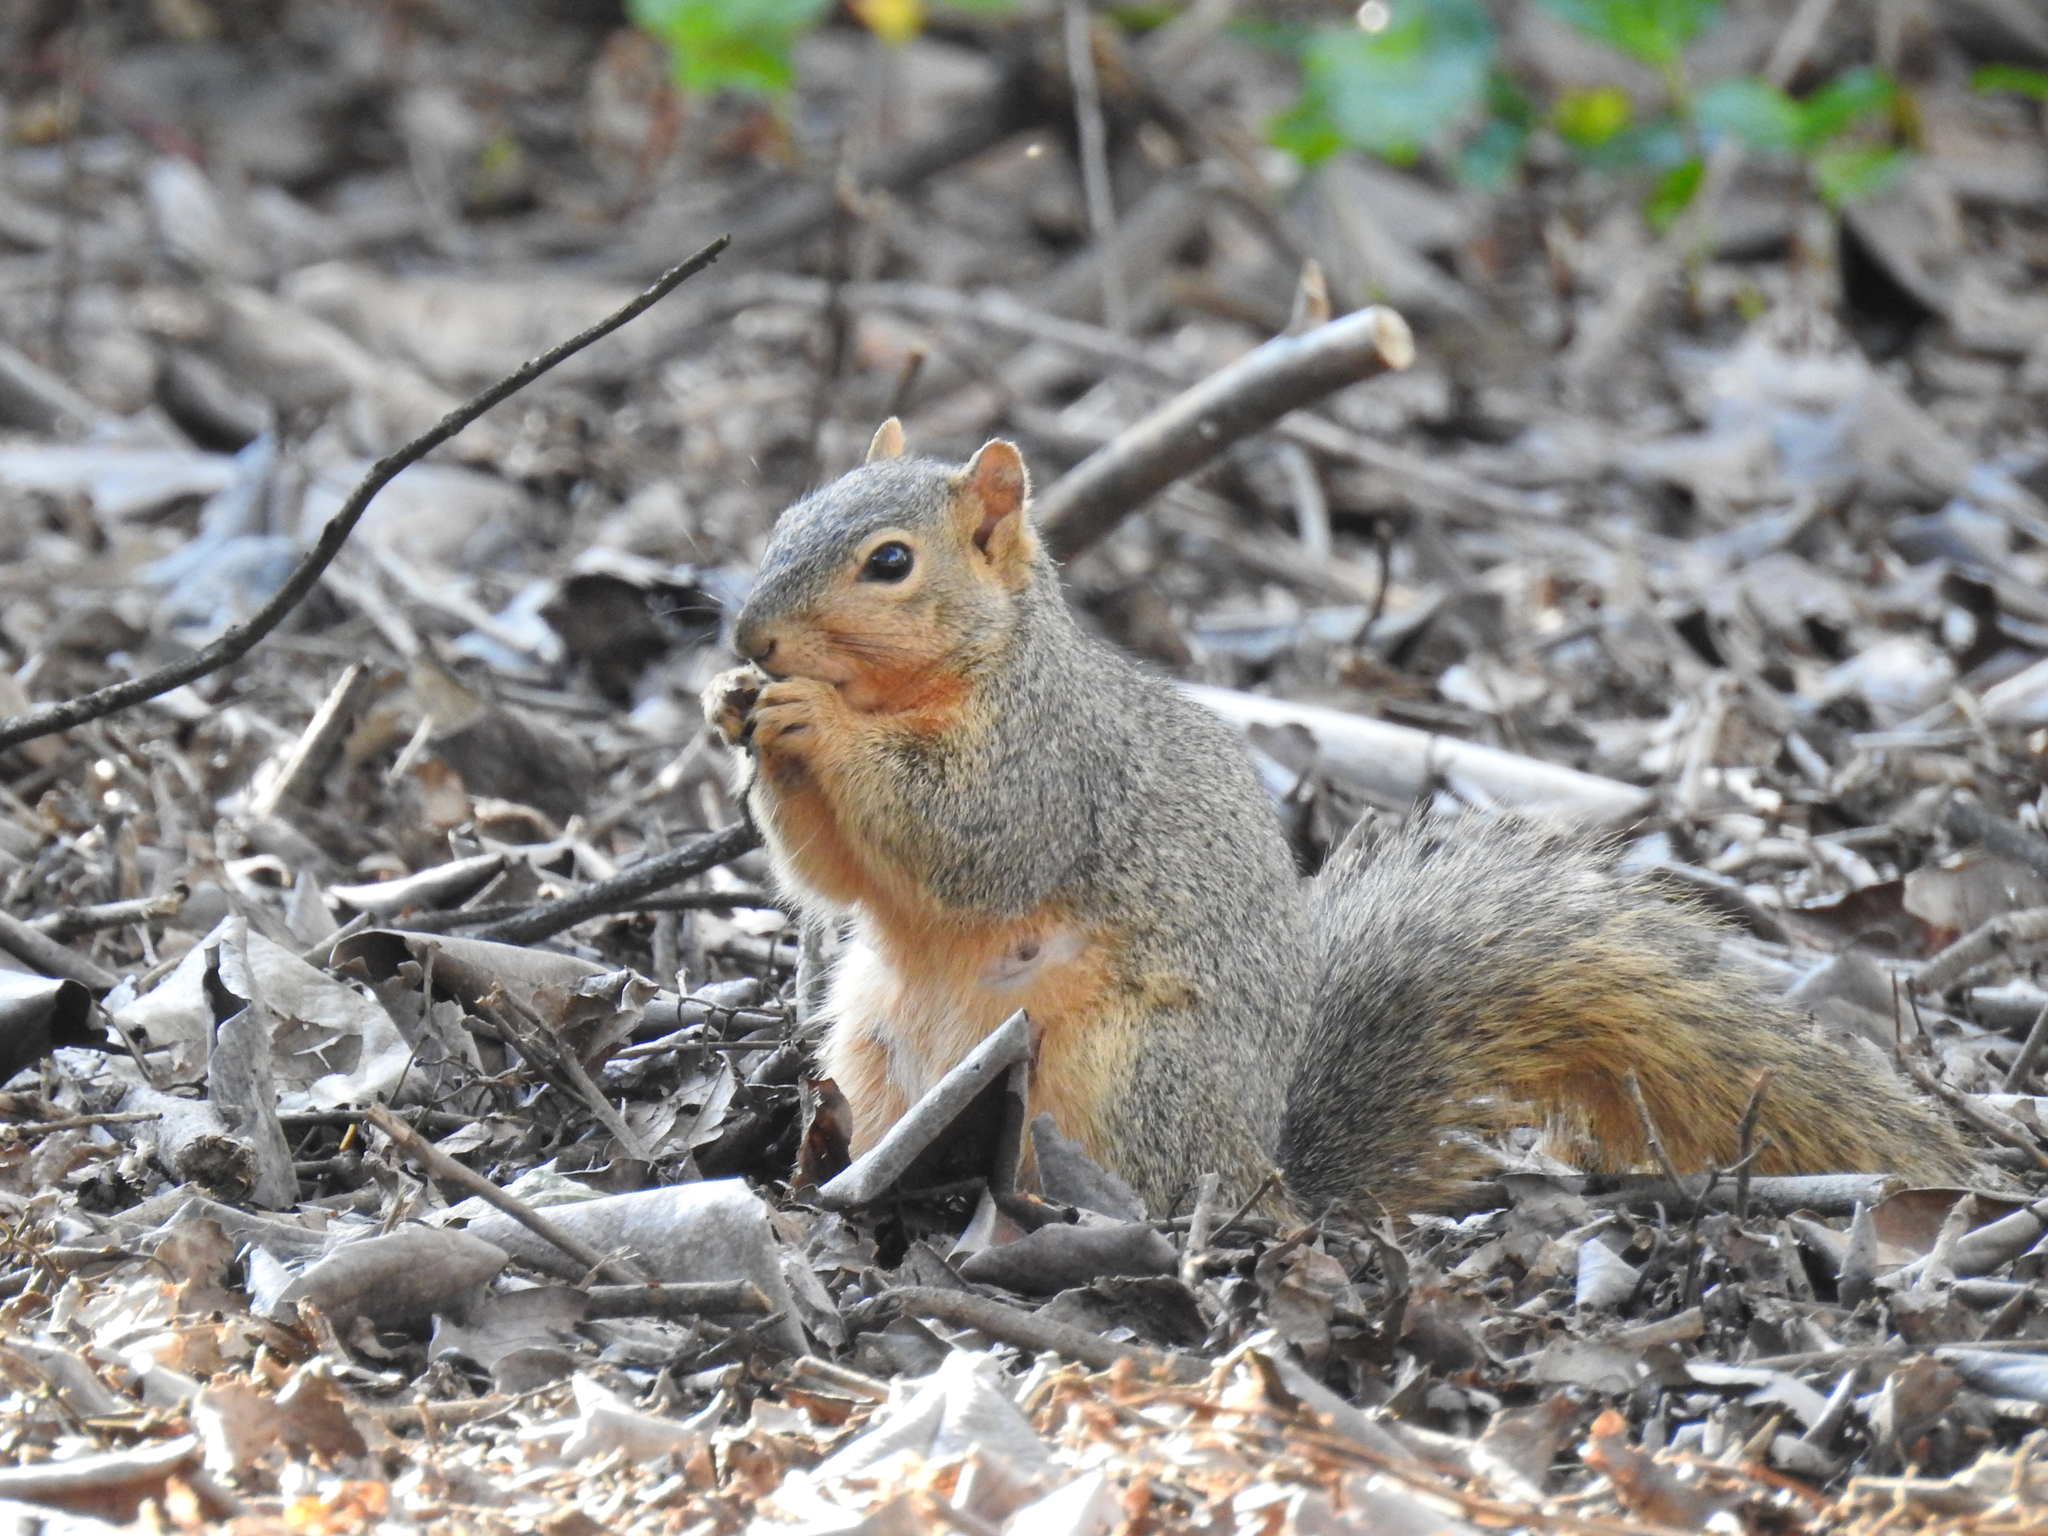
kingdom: Animalia
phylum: Chordata
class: Mammalia
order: Rodentia
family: Sciuridae
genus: Sciurus
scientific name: Sciurus niger
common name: Fox squirrel
